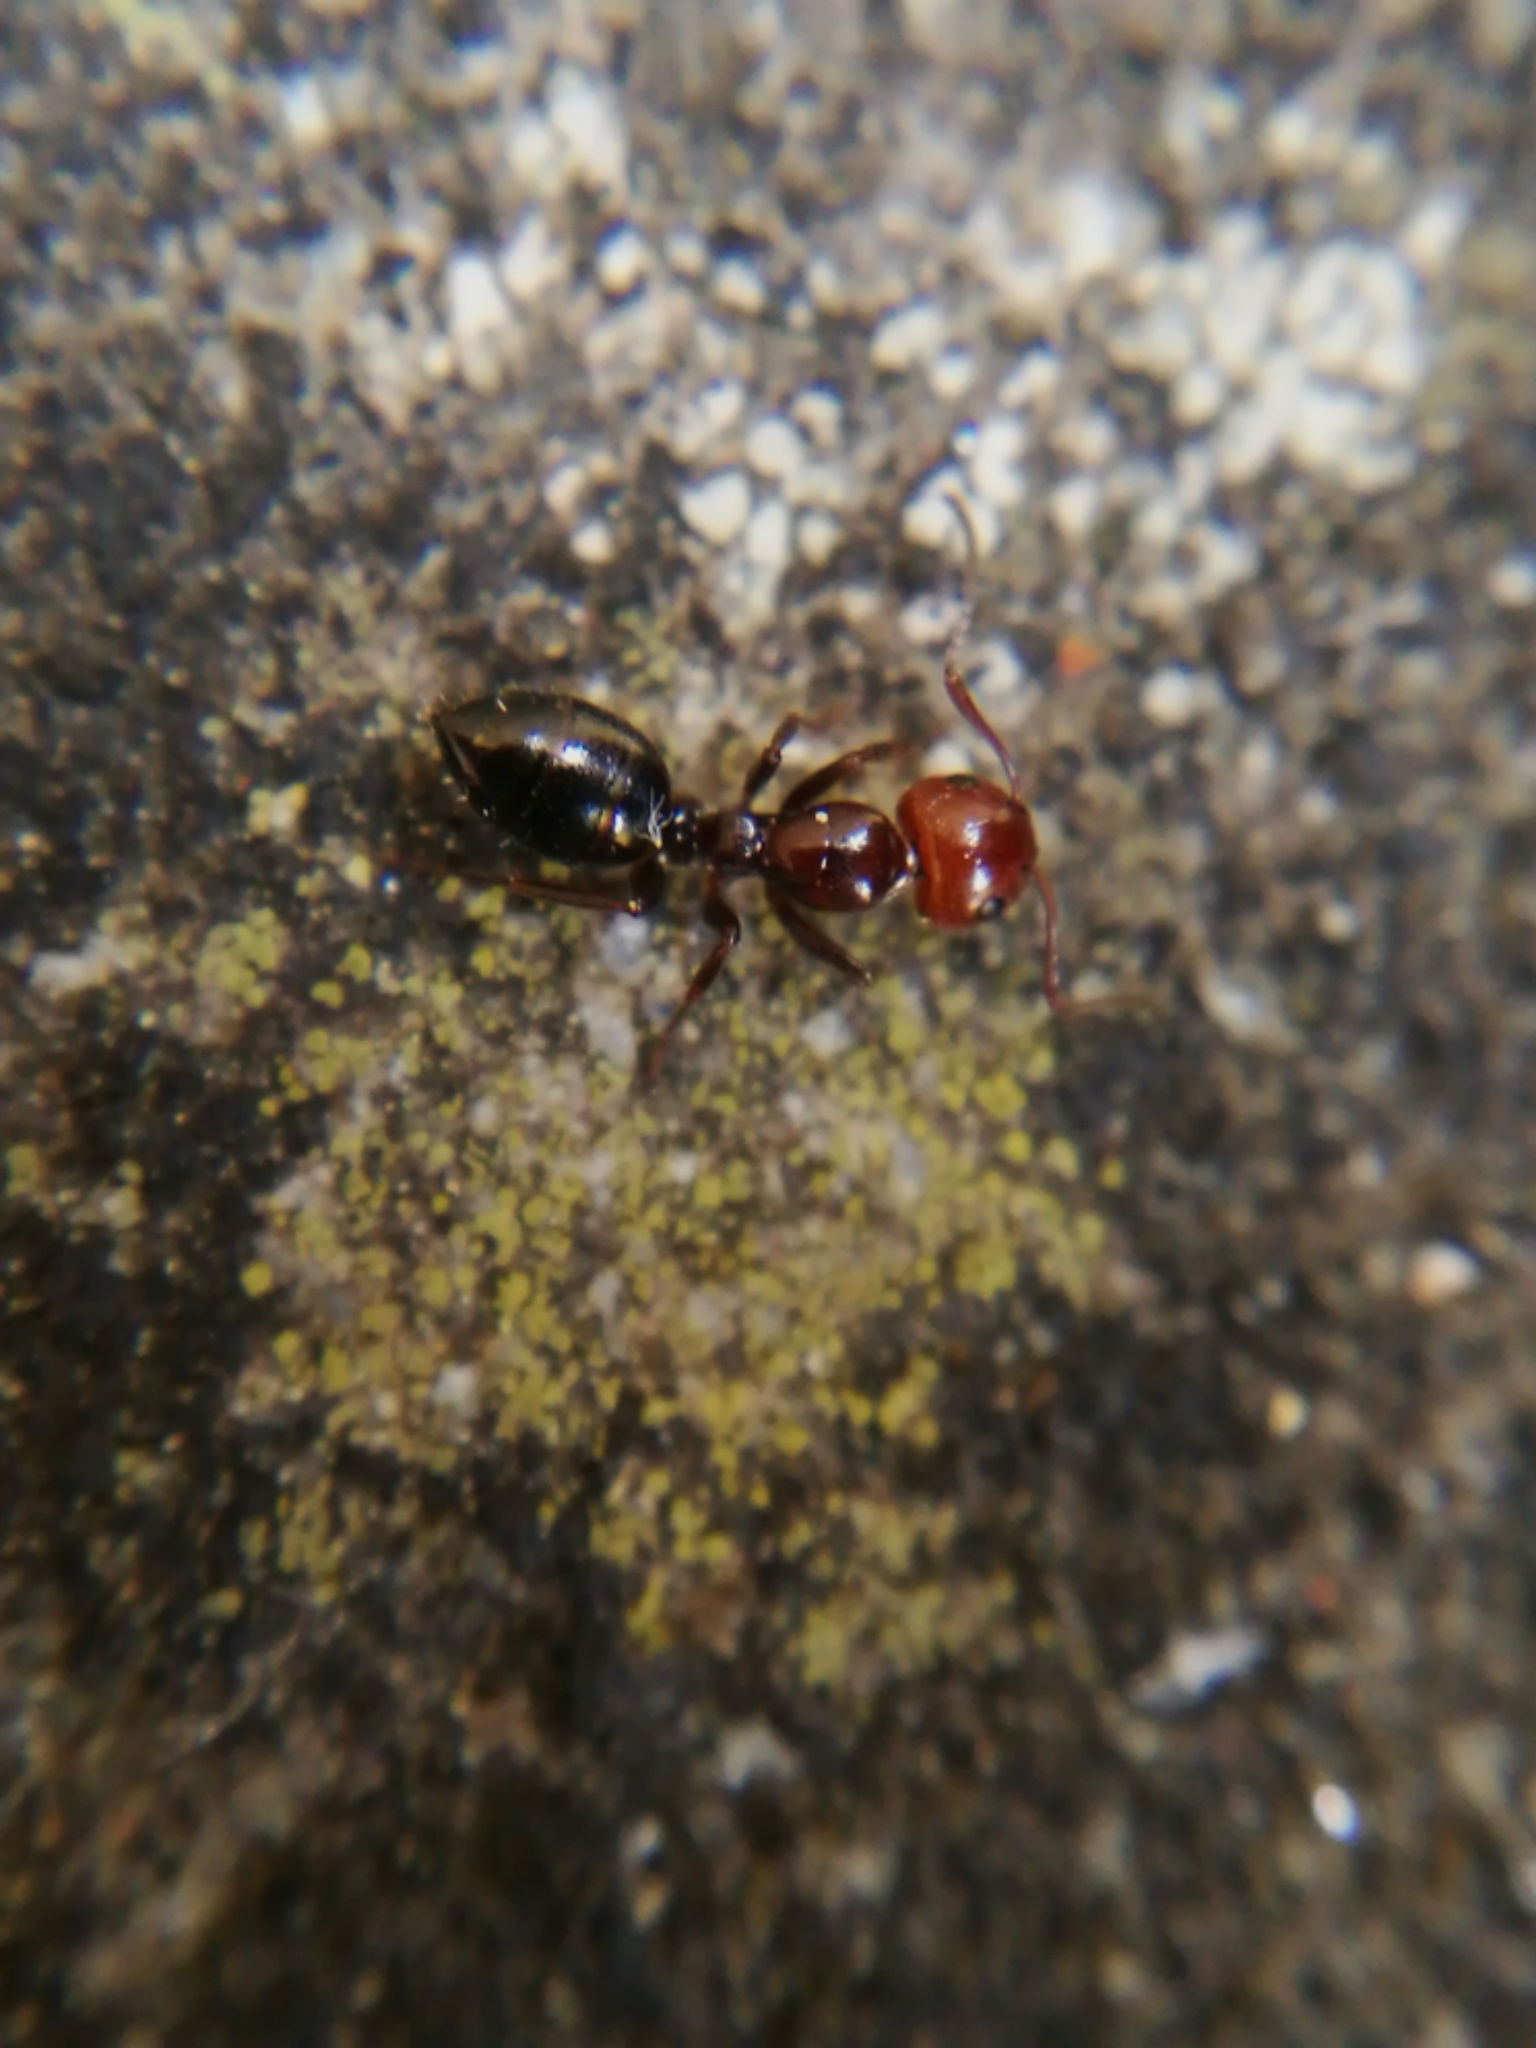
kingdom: Animalia
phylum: Arthropoda
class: Insecta
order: Hymenoptera
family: Formicidae
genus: Camponotus
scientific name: Camponotus lateralis
